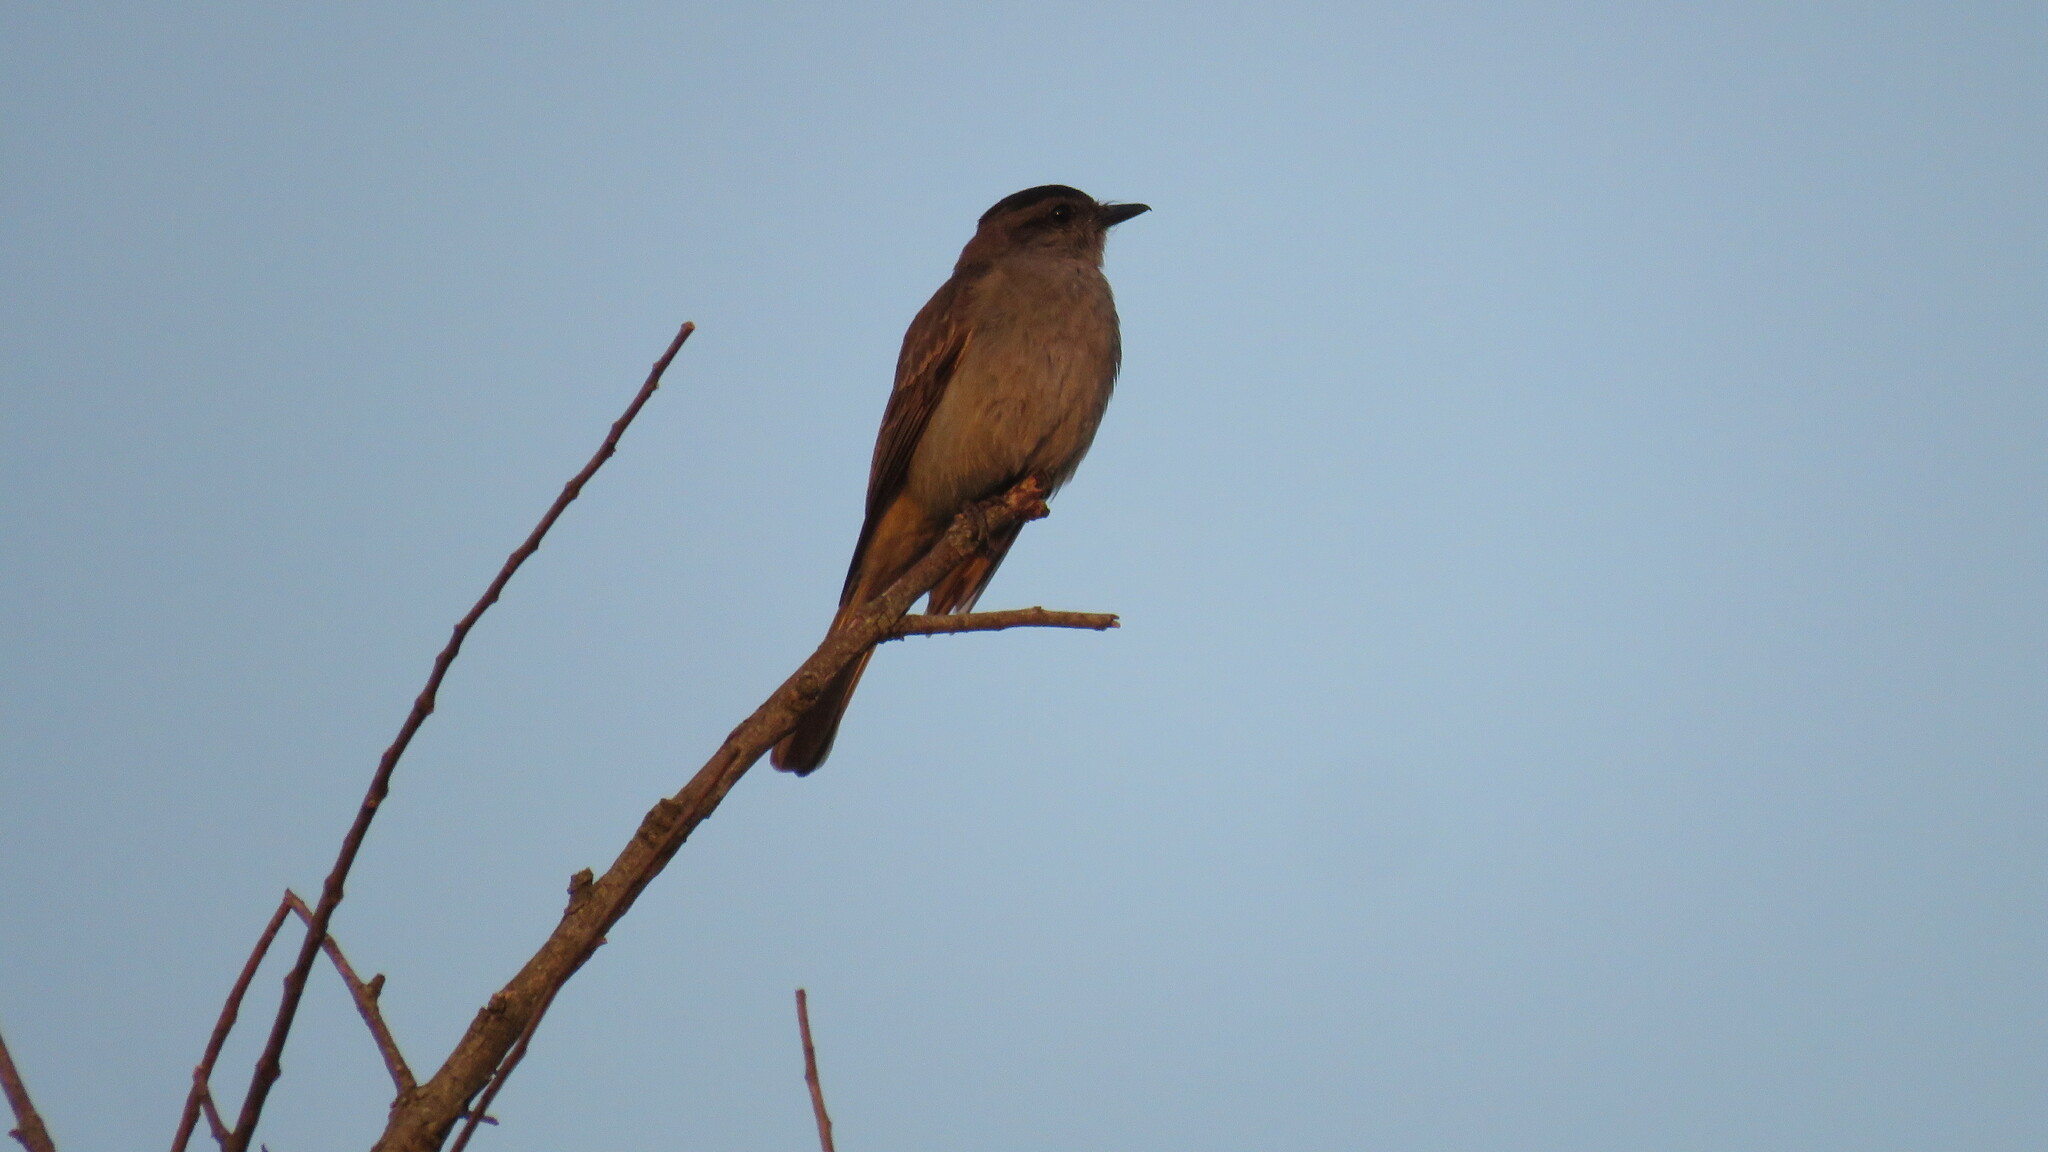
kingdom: Animalia
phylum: Chordata
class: Aves
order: Passeriformes
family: Tyrannidae
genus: Empidonomus
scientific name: Empidonomus aurantioatrocristatus
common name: Crowned slaty flycatcher
